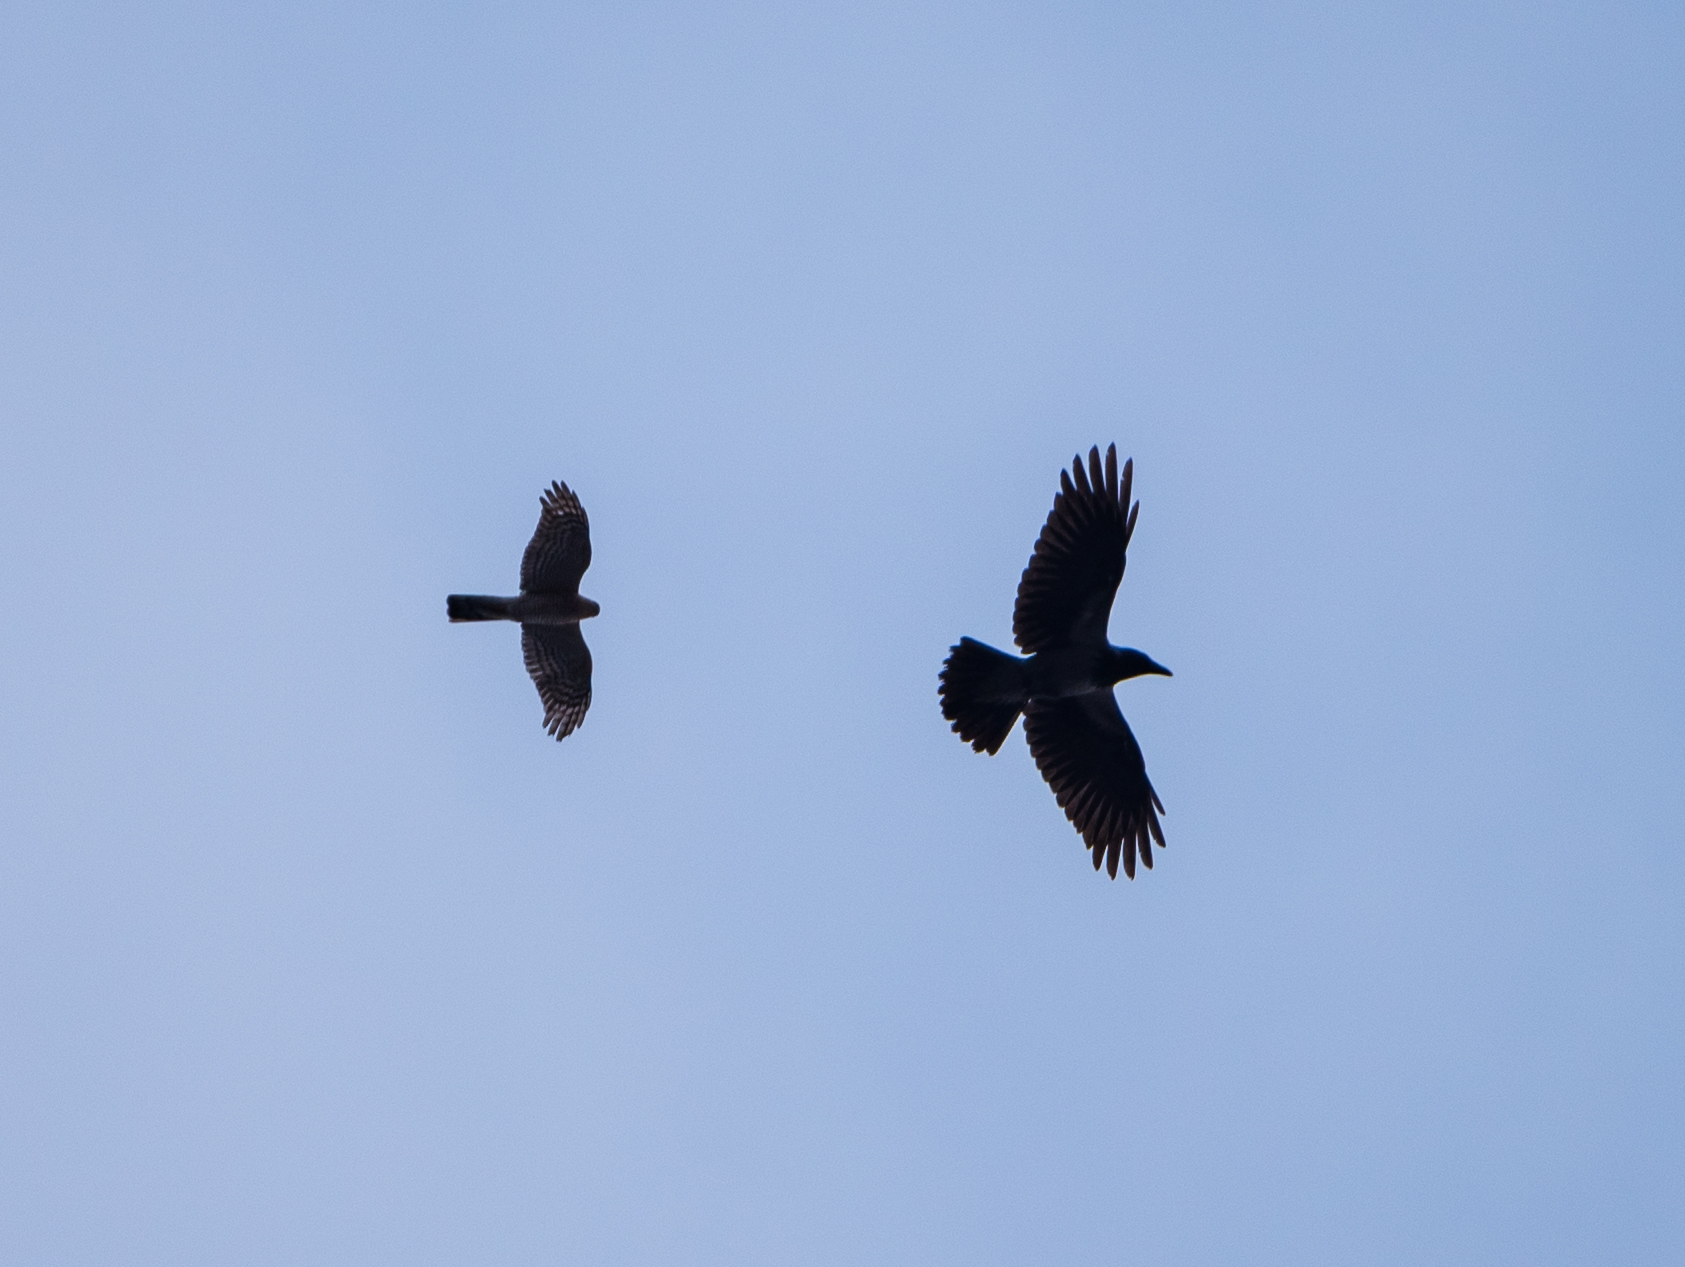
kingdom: Animalia
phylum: Chordata
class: Aves
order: Accipitriformes
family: Accipitridae
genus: Accipiter
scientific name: Accipiter nisus
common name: Eurasian sparrowhawk
